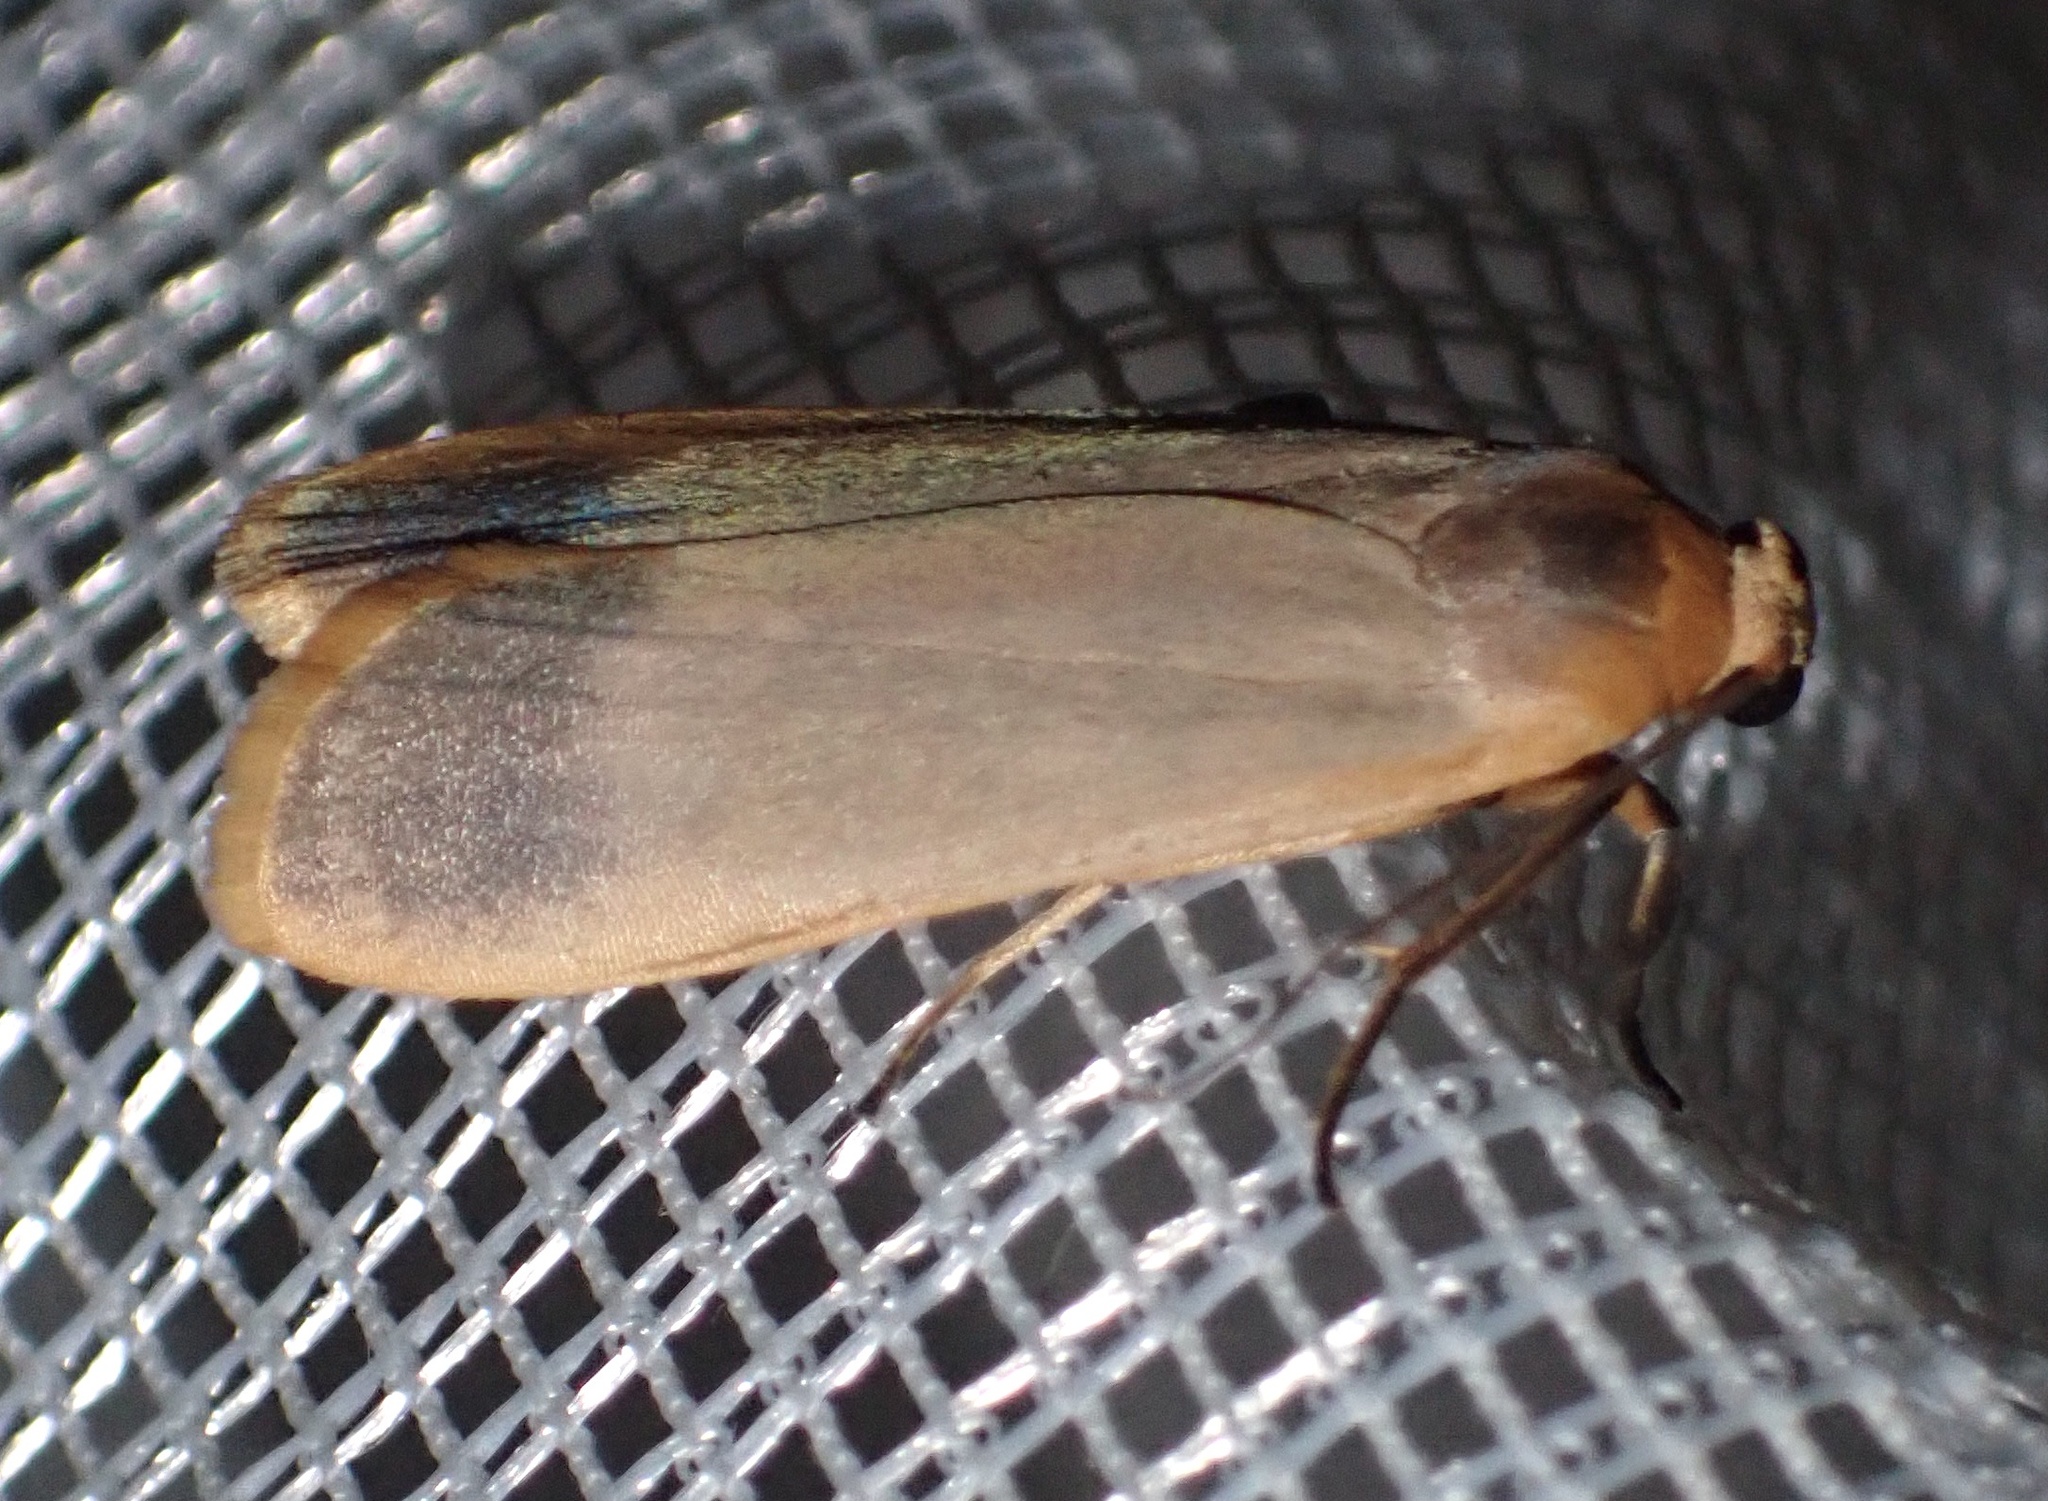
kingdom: Animalia
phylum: Arthropoda
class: Insecta
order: Lepidoptera
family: Erebidae
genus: Brunia
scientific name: Brunia vicaria
